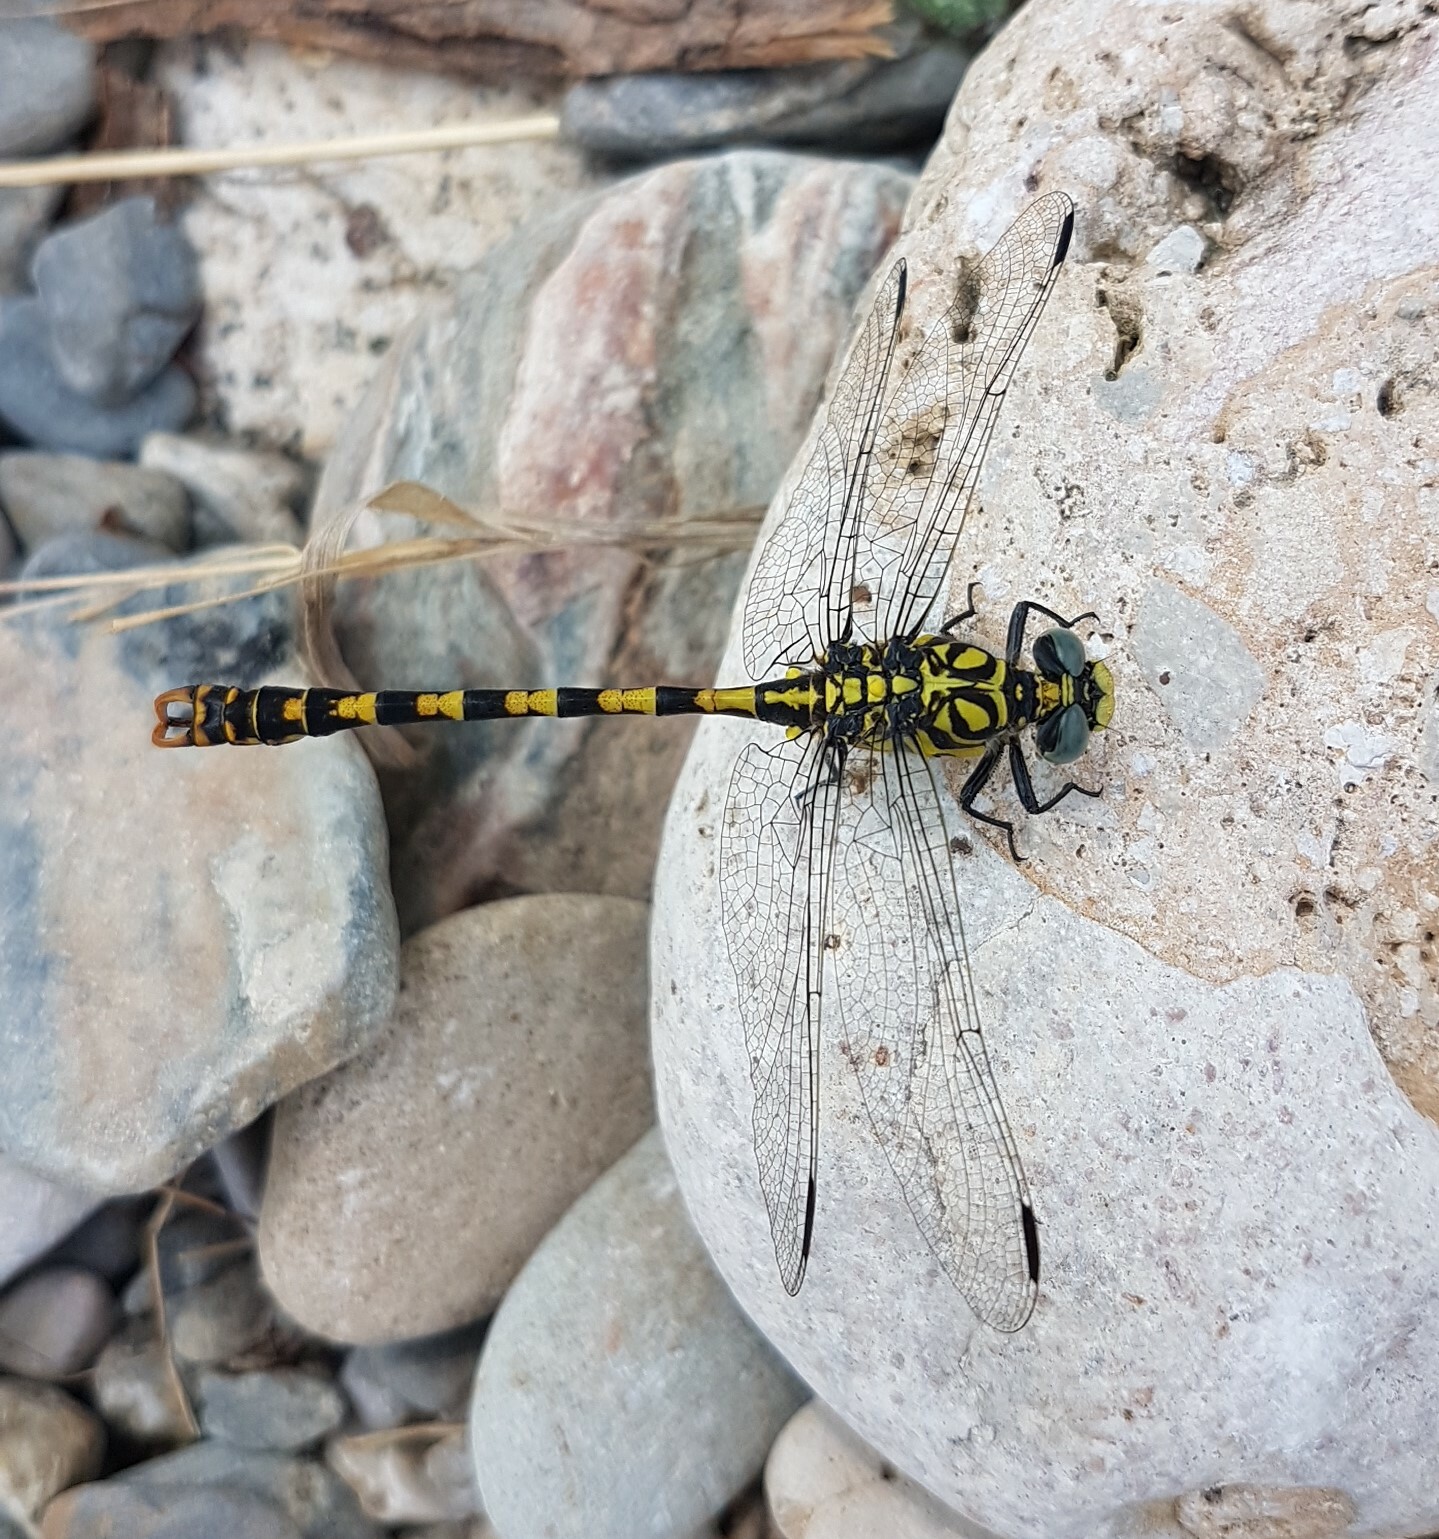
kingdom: Animalia
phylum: Arthropoda
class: Insecta
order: Odonata
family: Gomphidae
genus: Onychogomphus
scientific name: Onychogomphus forcipatus
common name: Small pincertail
